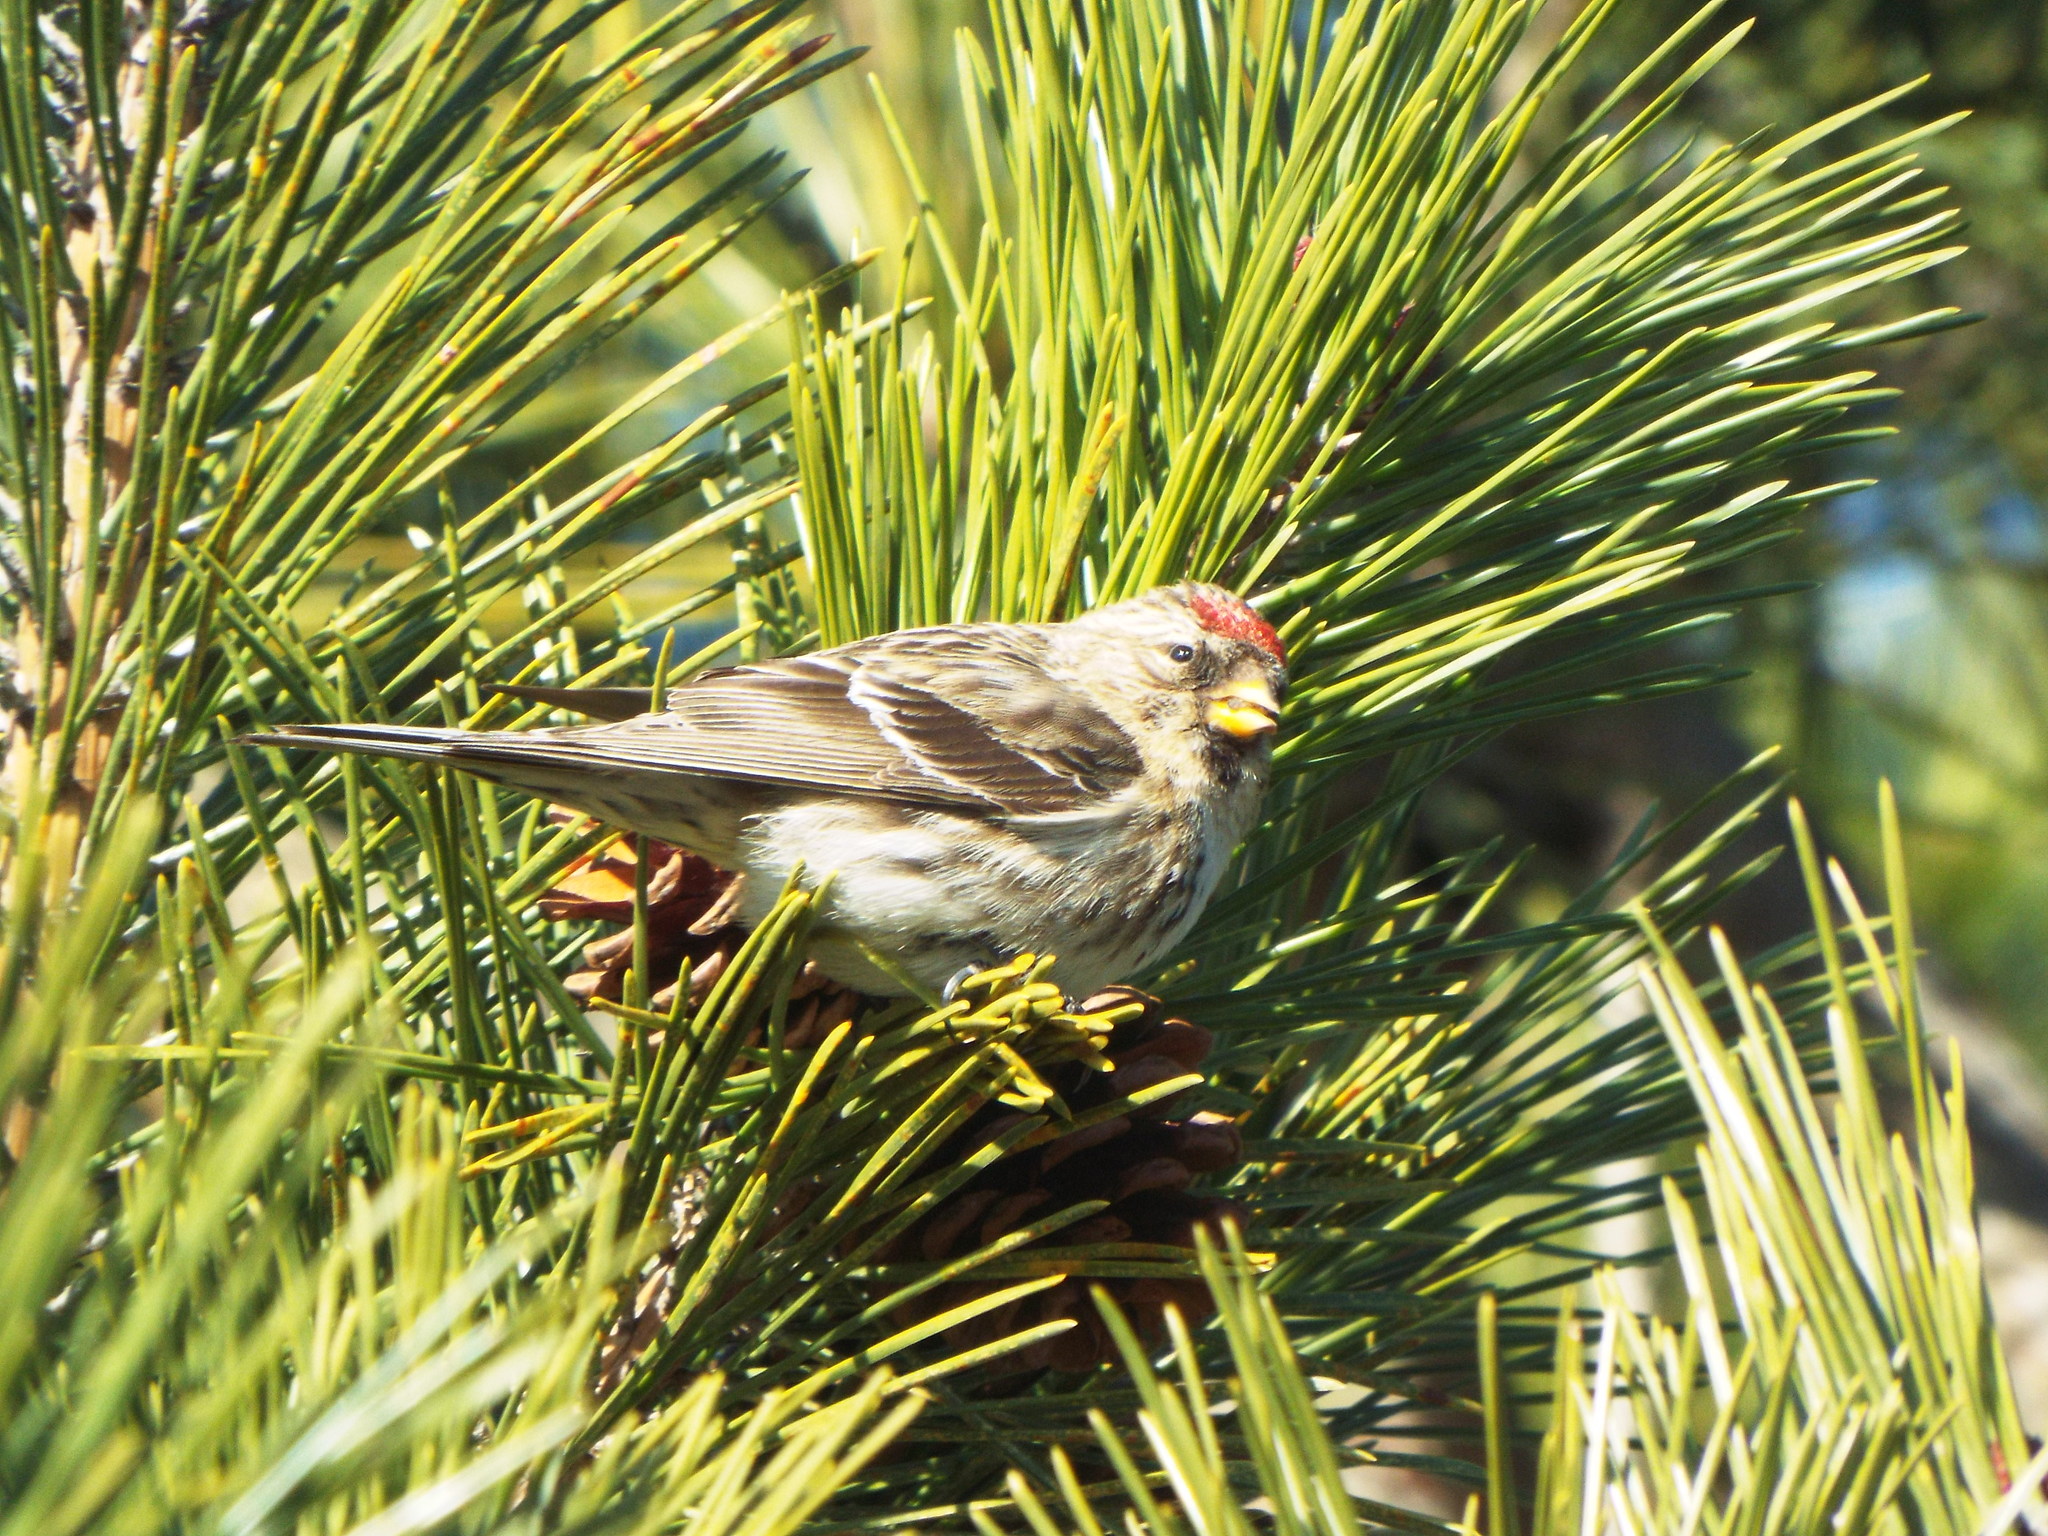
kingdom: Animalia
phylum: Chordata
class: Aves
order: Passeriformes
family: Fringillidae
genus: Acanthis
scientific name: Acanthis flammea
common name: Common redpoll
